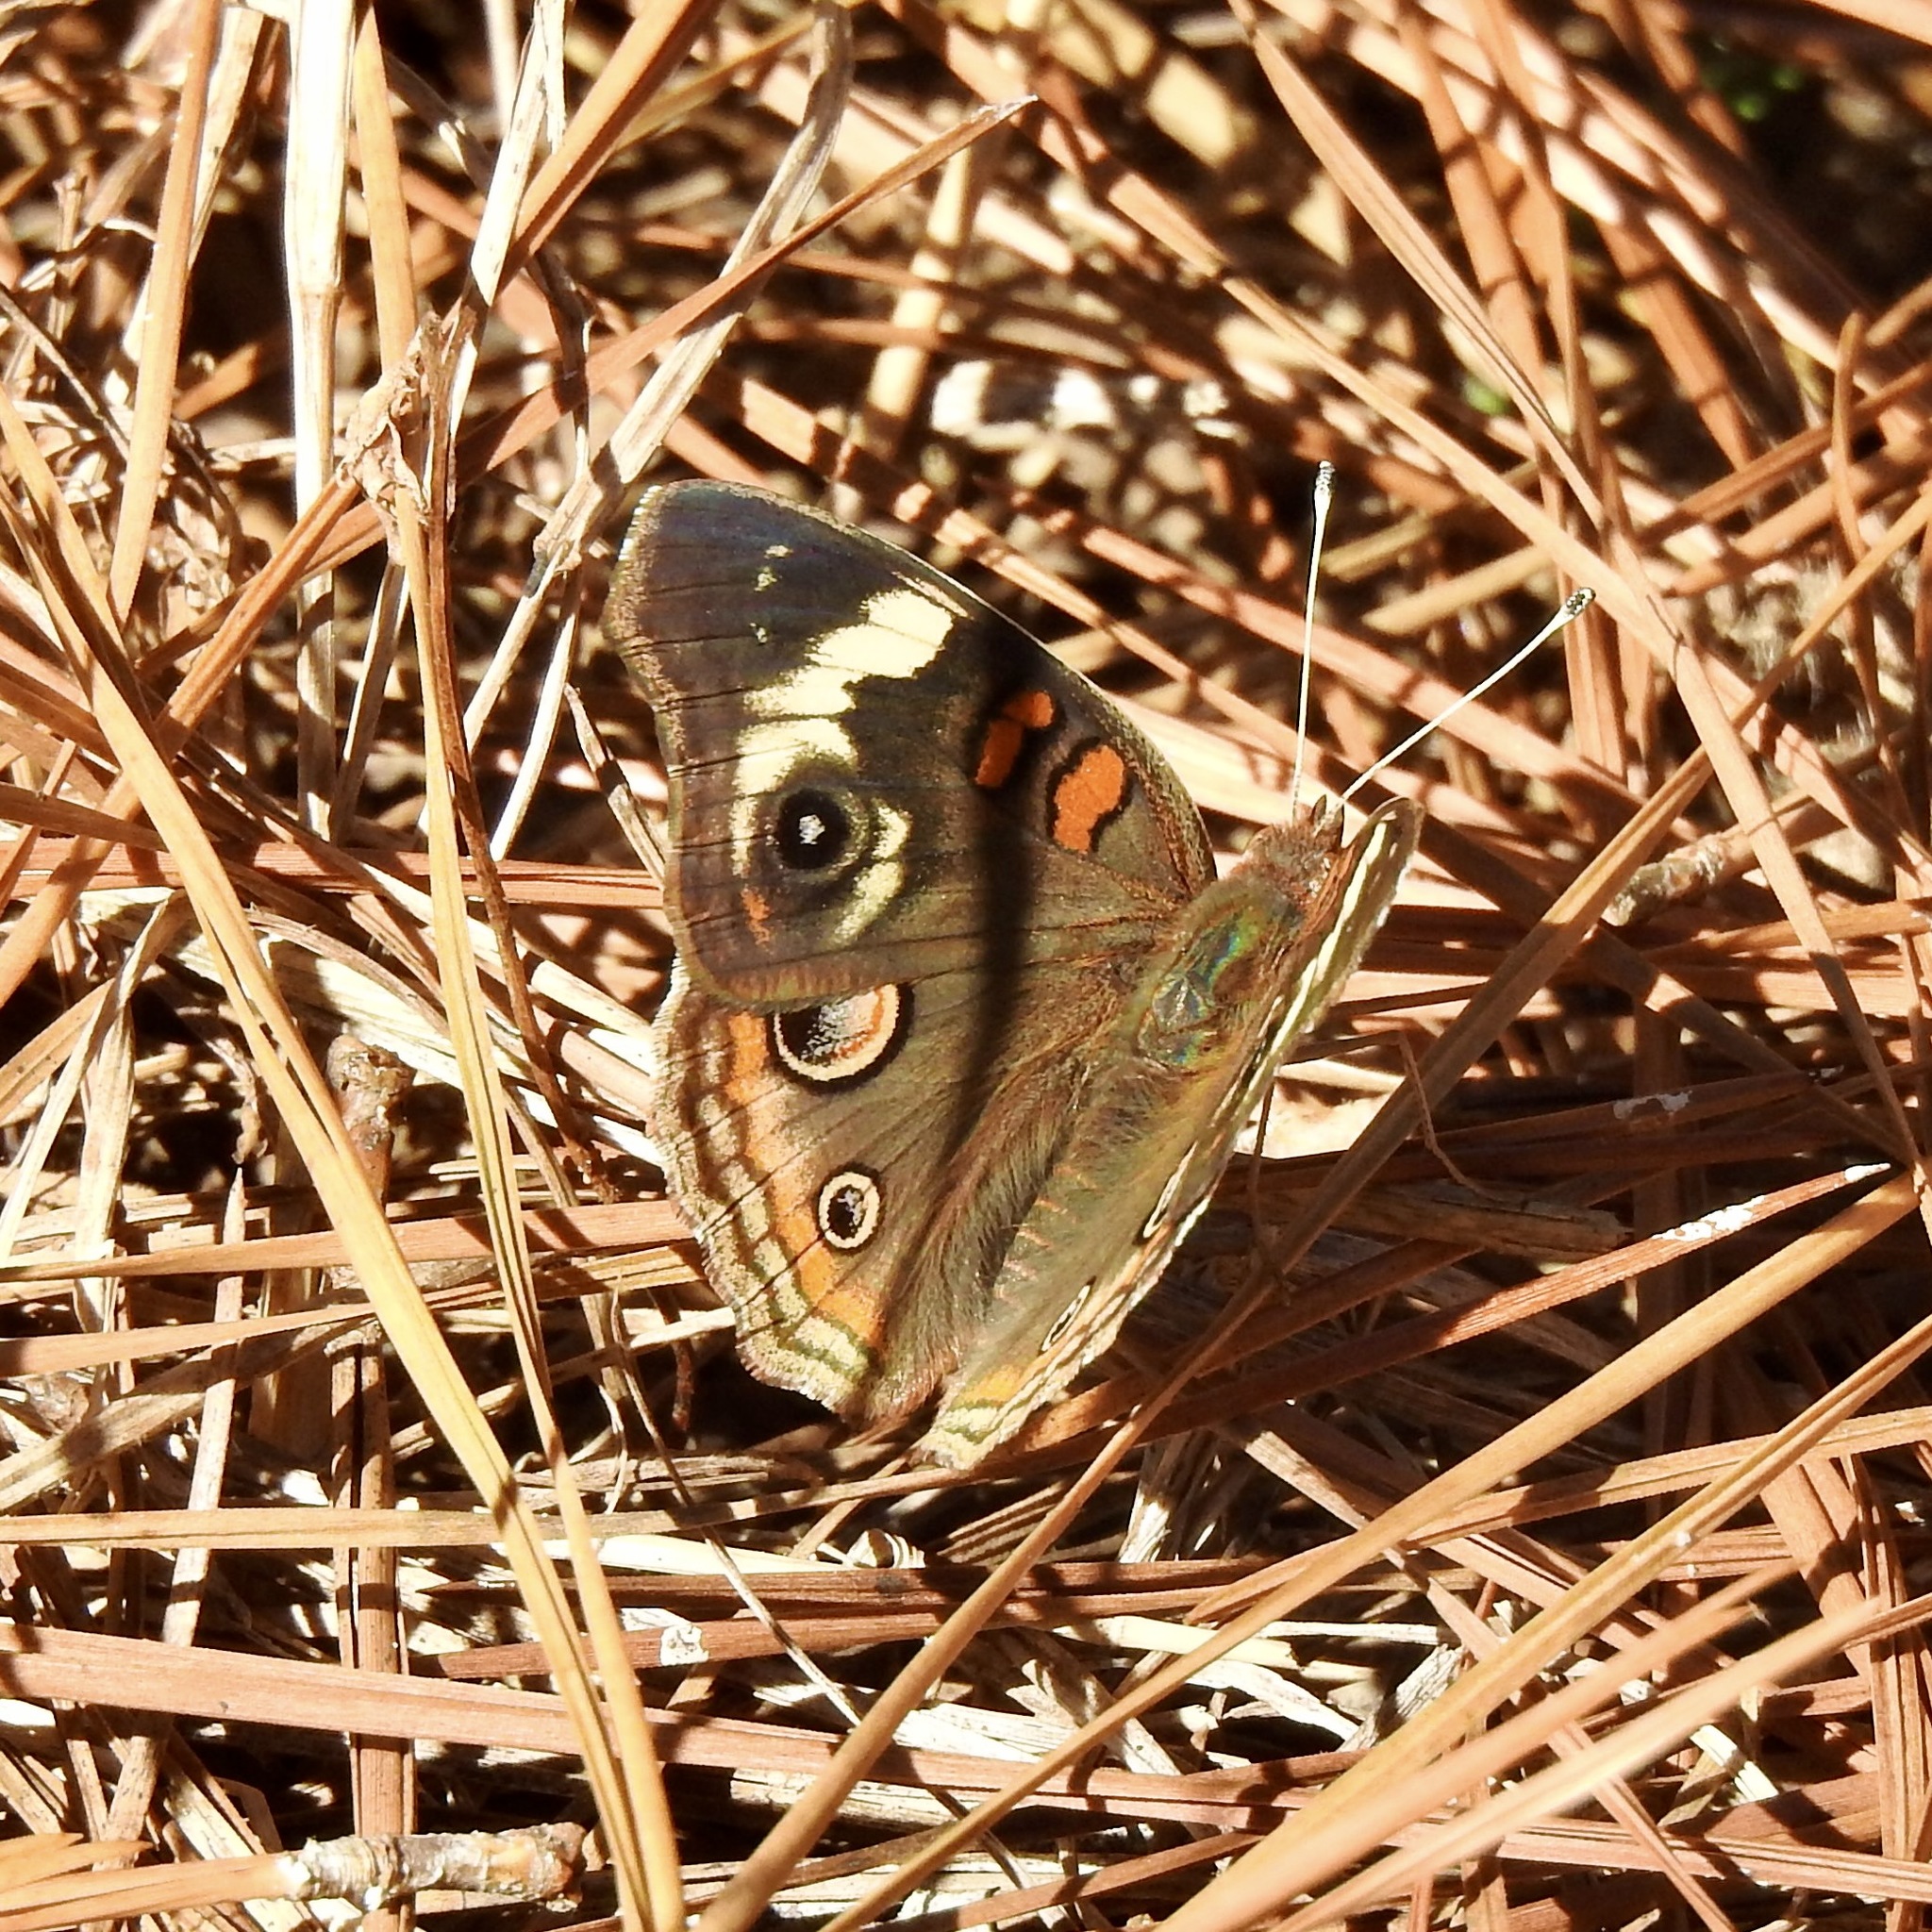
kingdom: Animalia
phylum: Arthropoda
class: Insecta
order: Lepidoptera
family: Nymphalidae
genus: Junonia
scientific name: Junonia coenia
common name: Common buckeye
